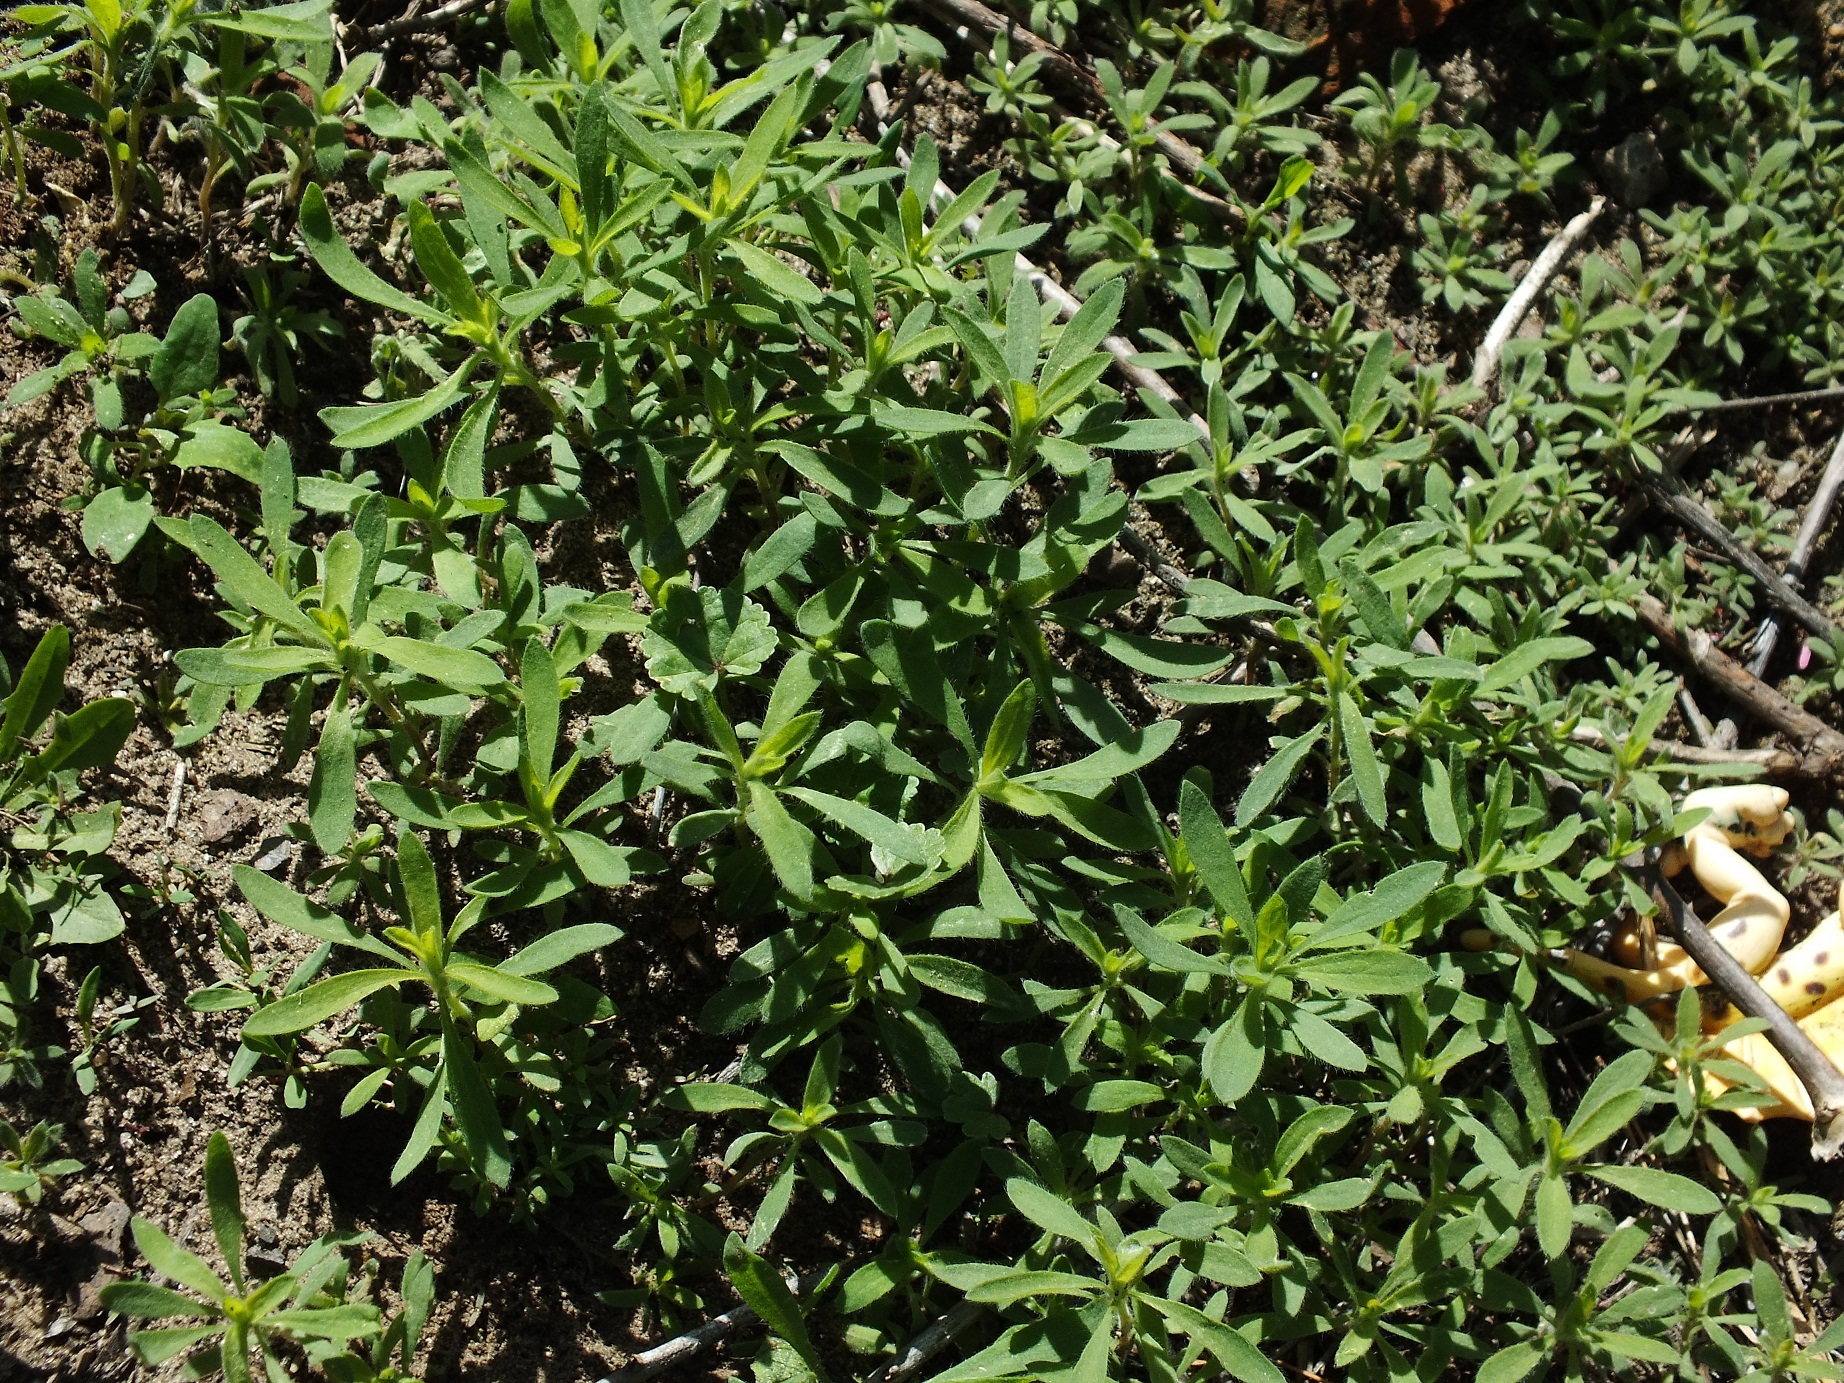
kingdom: Plantae
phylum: Tracheophyta
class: Magnoliopsida
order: Boraginales
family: Boraginaceae
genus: Asperugo
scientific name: Asperugo procumbens
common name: Madwort
